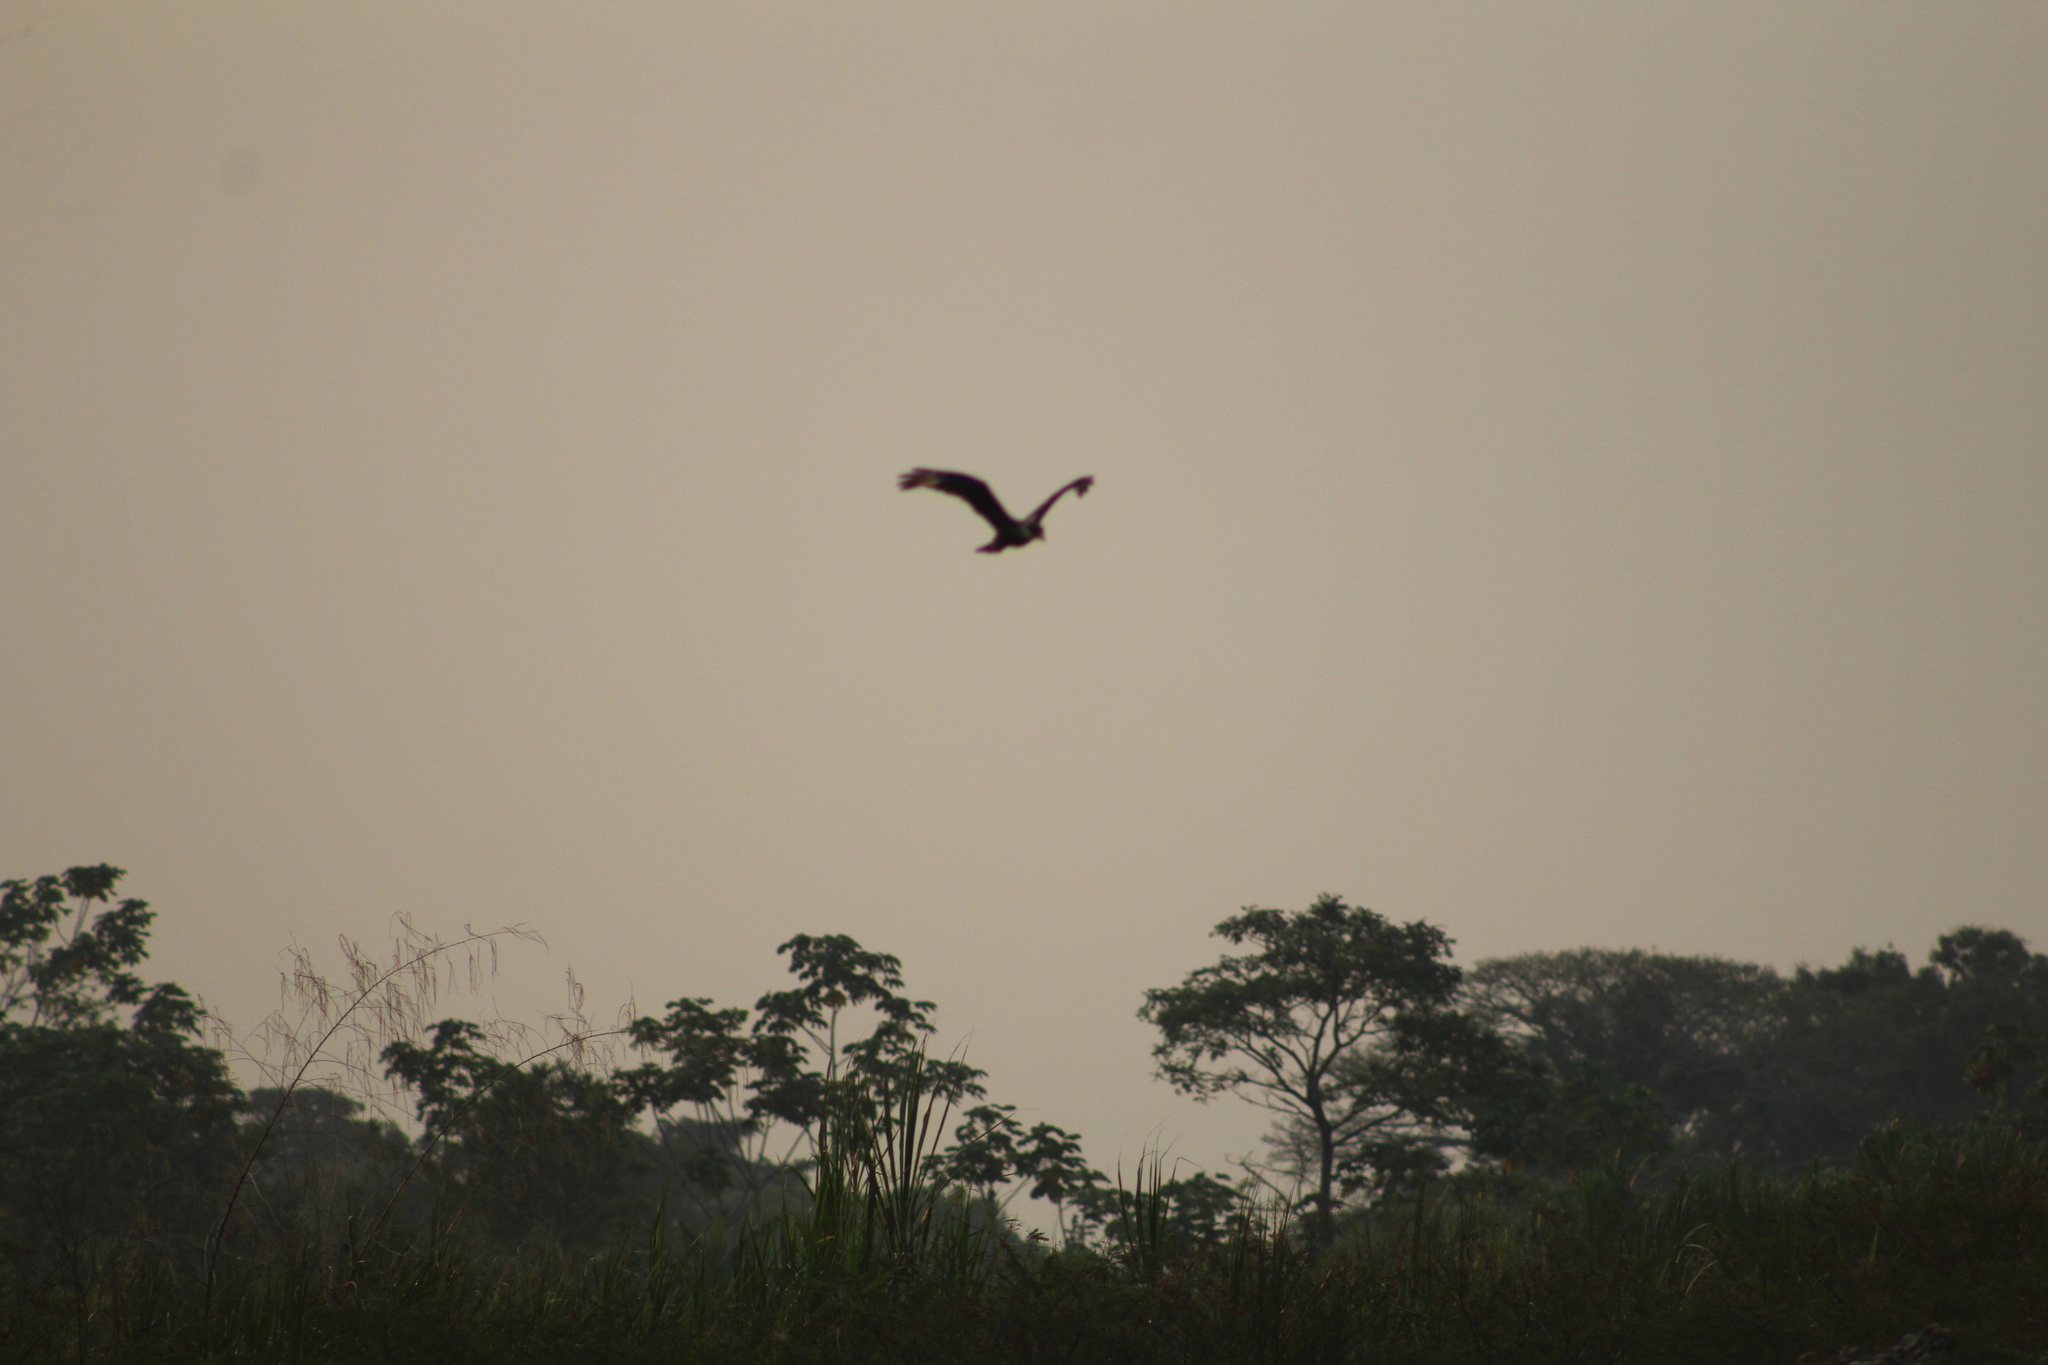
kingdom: Animalia
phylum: Chordata
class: Aves
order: Falconiformes
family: Falconidae
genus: Caracara
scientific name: Caracara plancus
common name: Southern caracara
